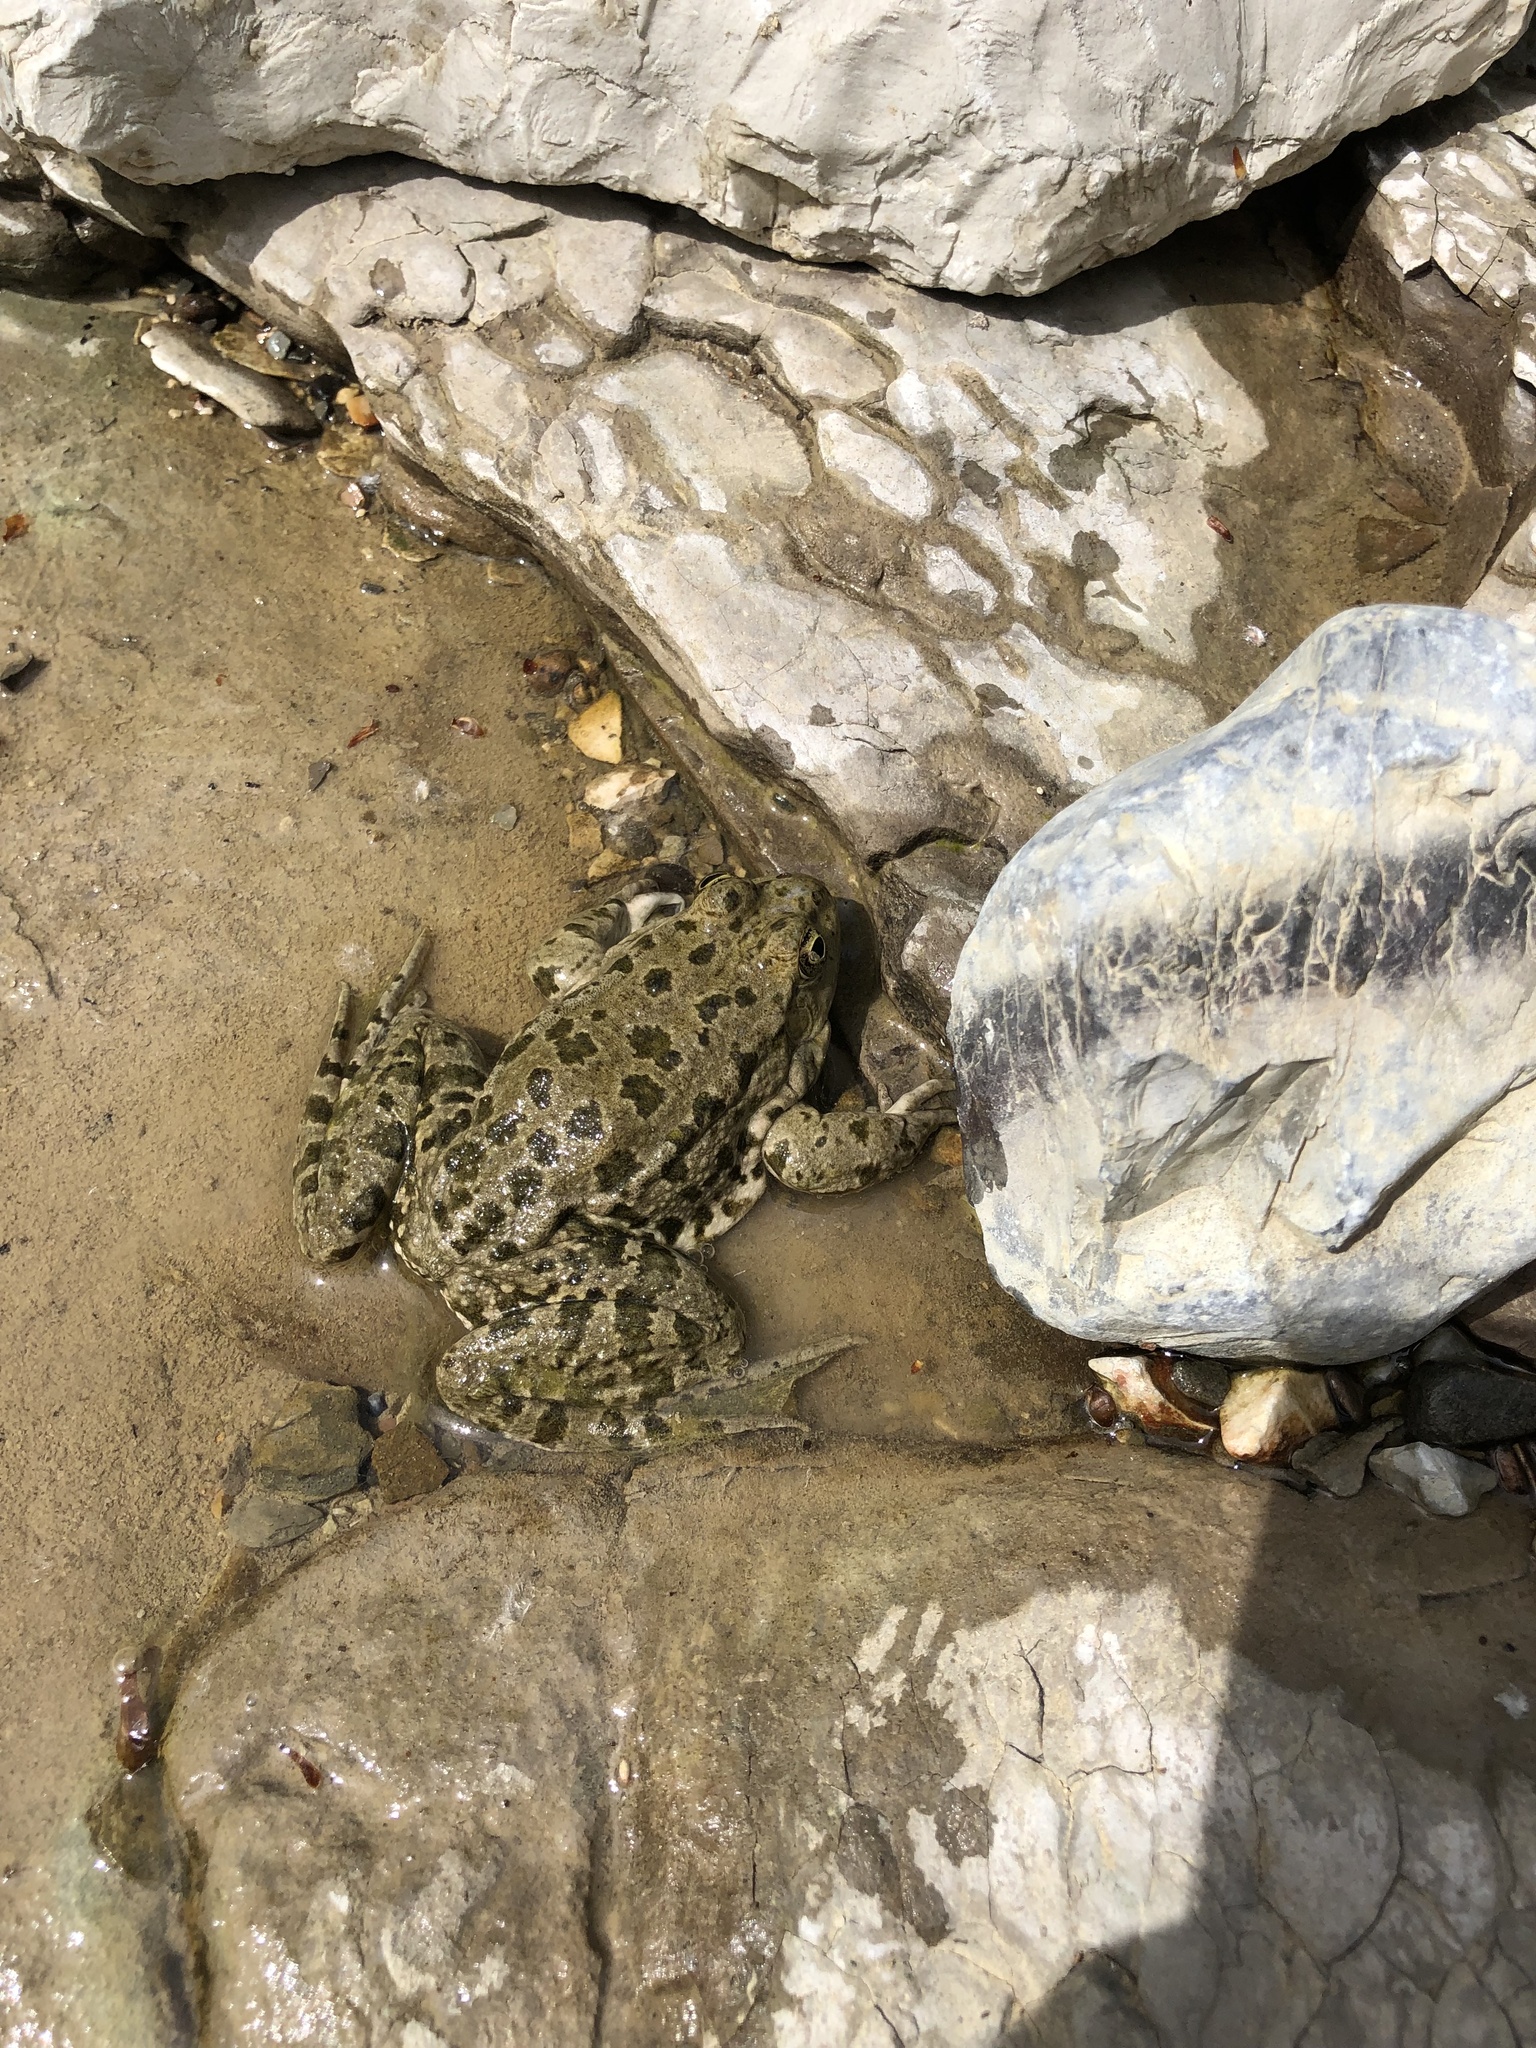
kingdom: Animalia
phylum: Chordata
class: Amphibia
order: Anura
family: Ranidae
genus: Pelophylax
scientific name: Pelophylax ridibundus
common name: Marsh frog
